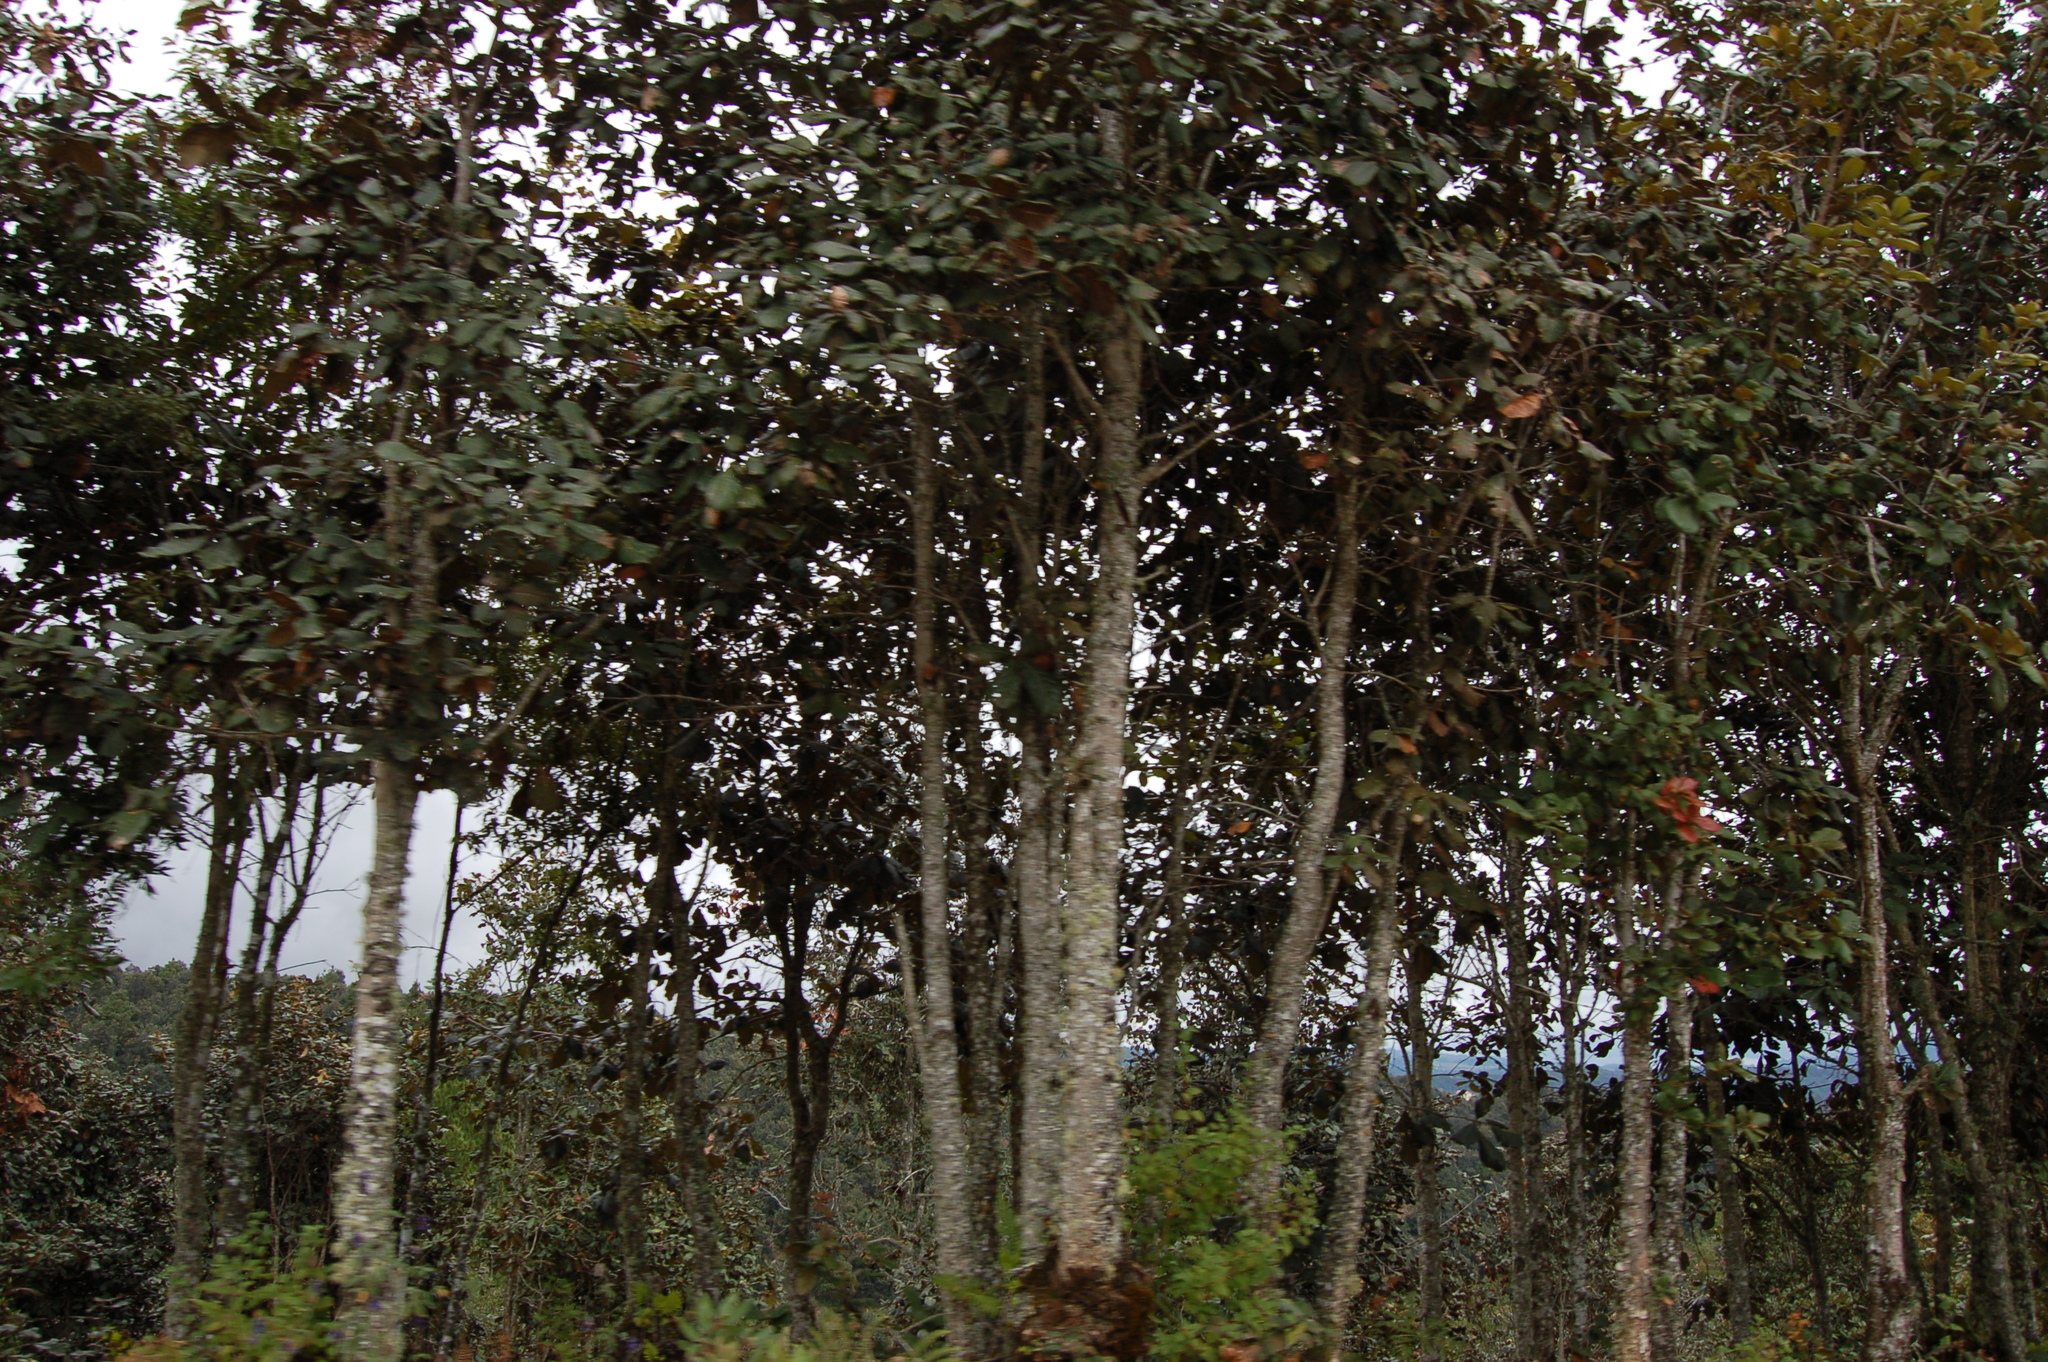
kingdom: Plantae
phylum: Tracheophyta
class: Magnoliopsida
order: Fagales
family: Fagaceae
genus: Quercus
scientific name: Quercus rugosa
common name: Netleaf oak
